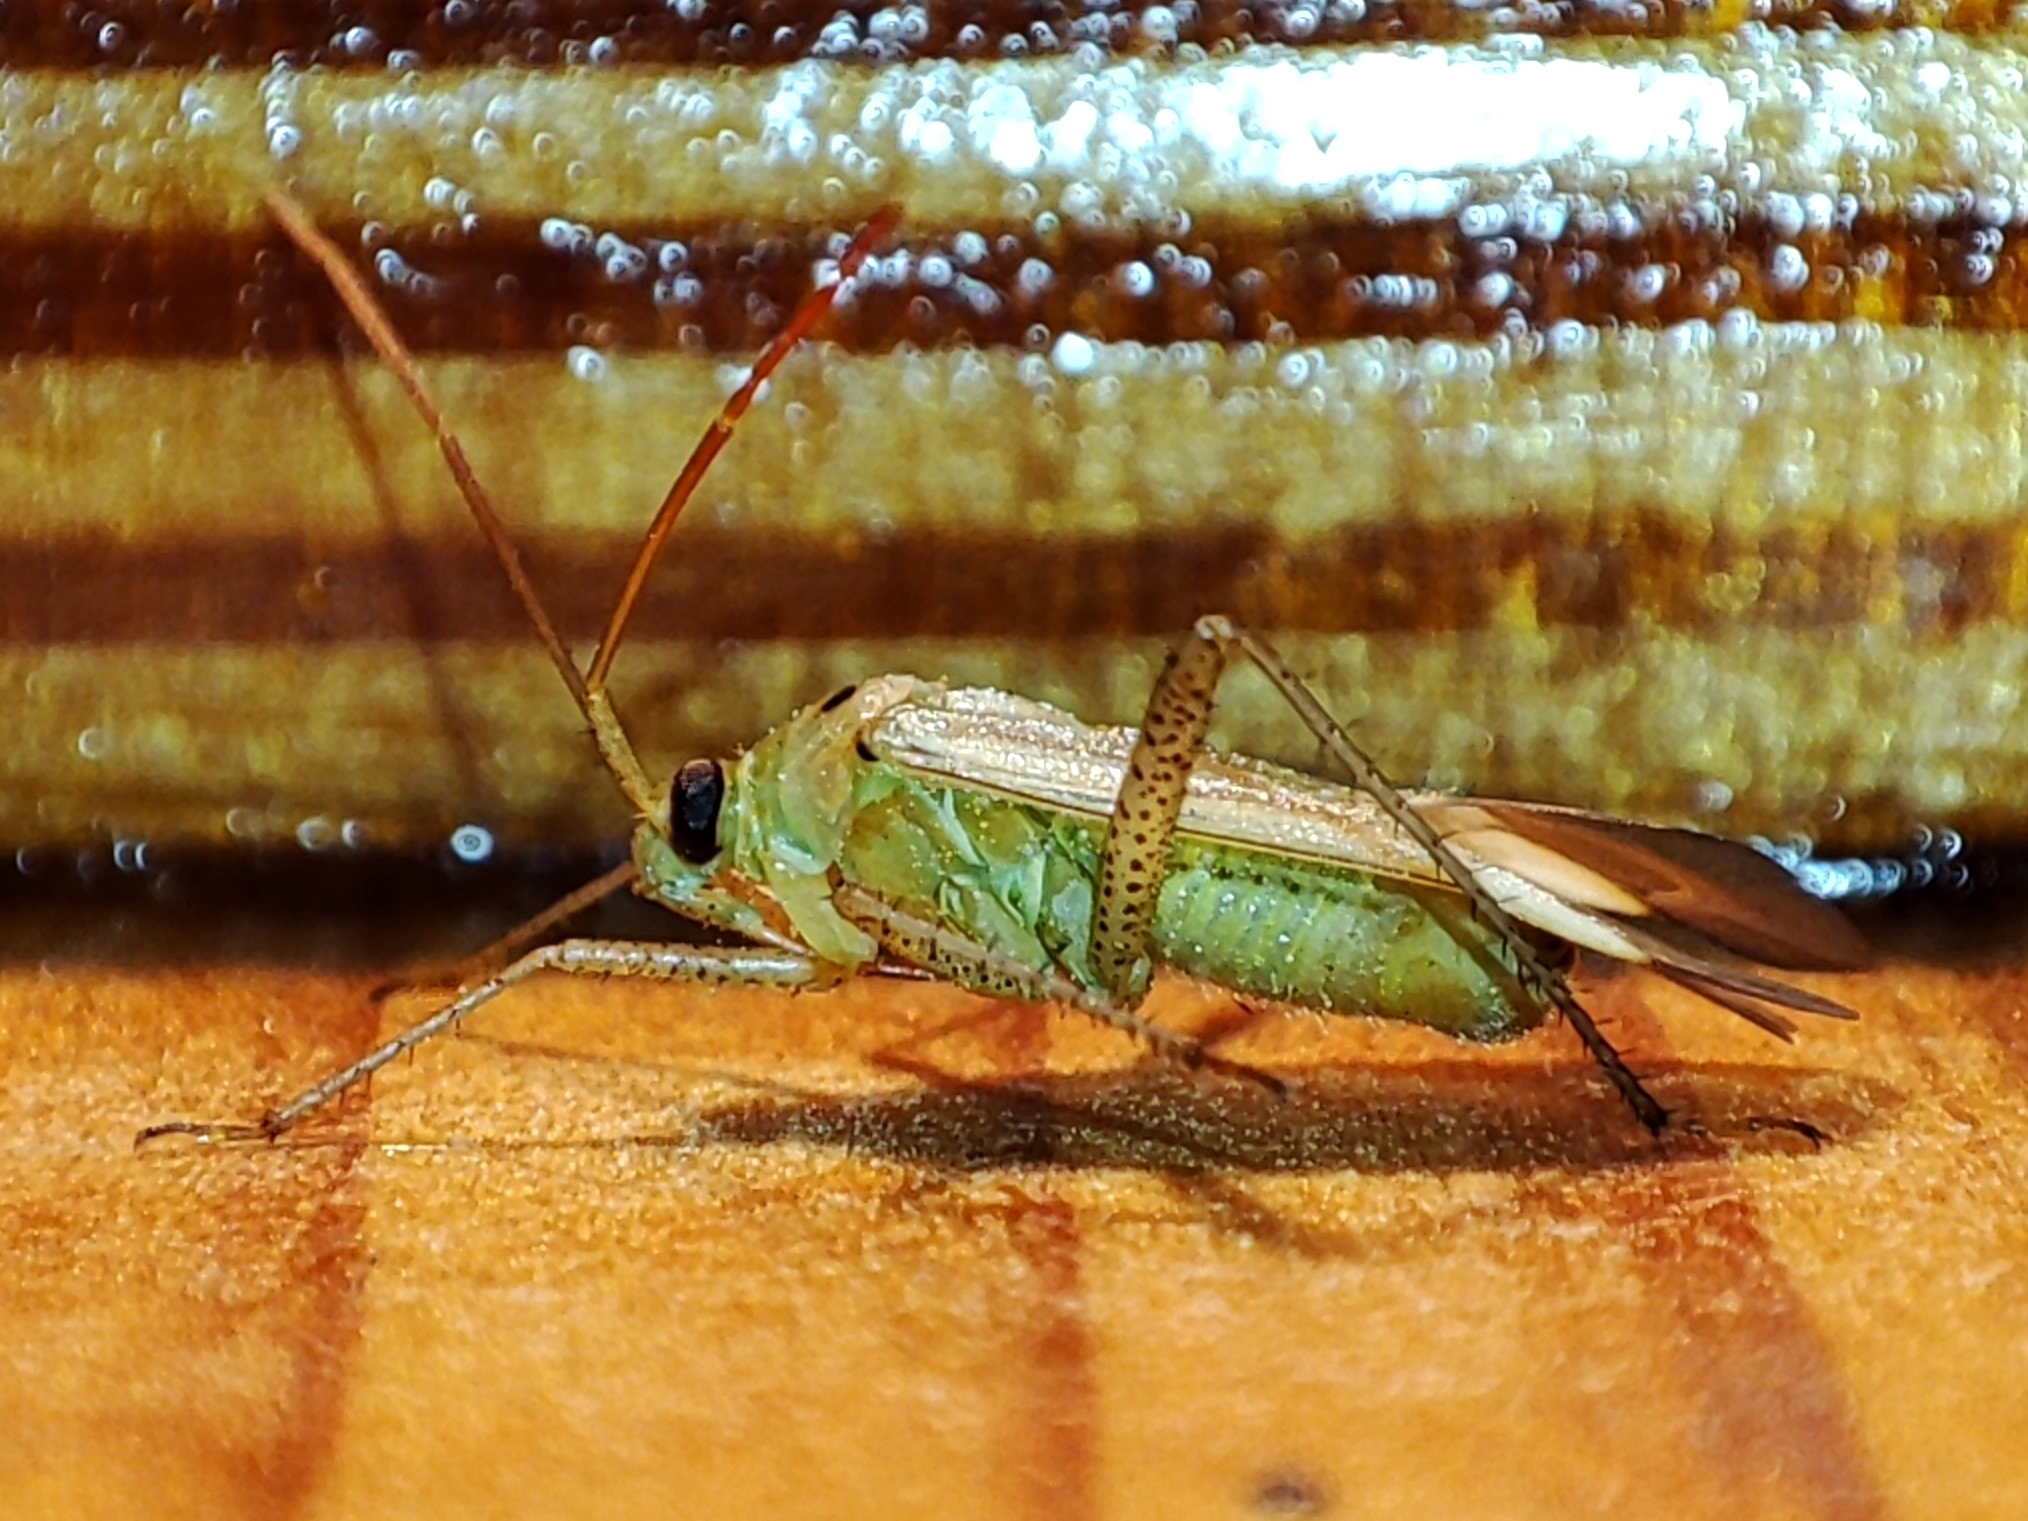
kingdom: Animalia
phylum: Arthropoda
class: Insecta
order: Hemiptera
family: Miridae
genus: Adelphocoris
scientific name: Adelphocoris lineolatus
